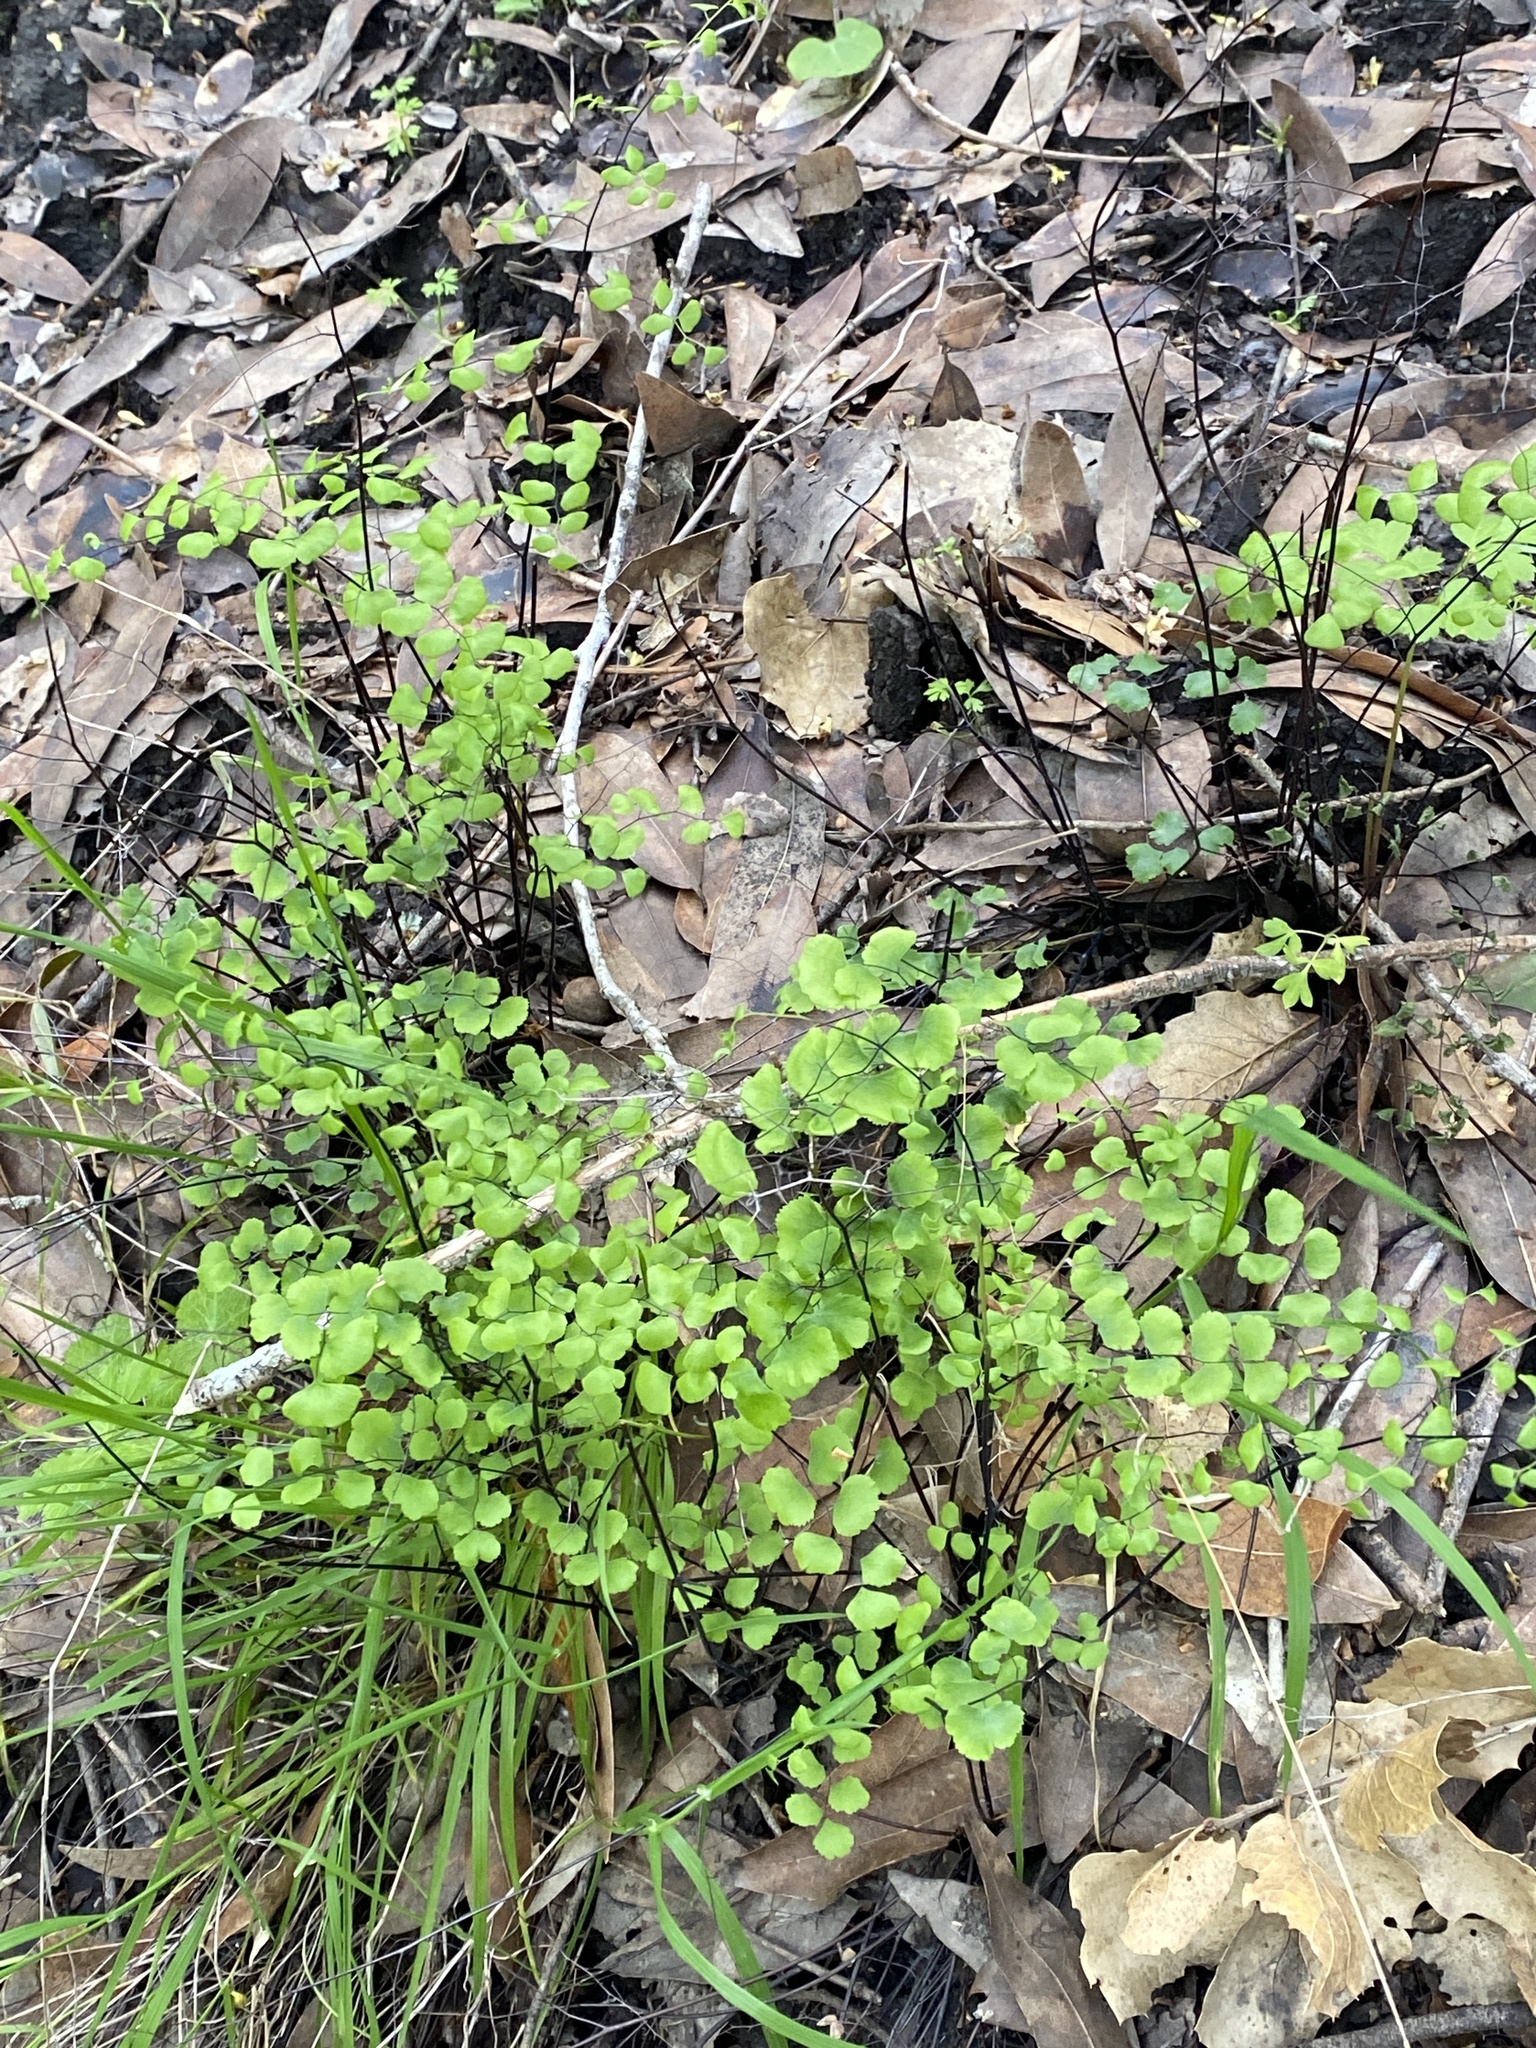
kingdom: Plantae
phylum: Tracheophyta
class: Polypodiopsida
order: Polypodiales
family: Pteridaceae
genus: Adiantum
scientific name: Adiantum jordanii
